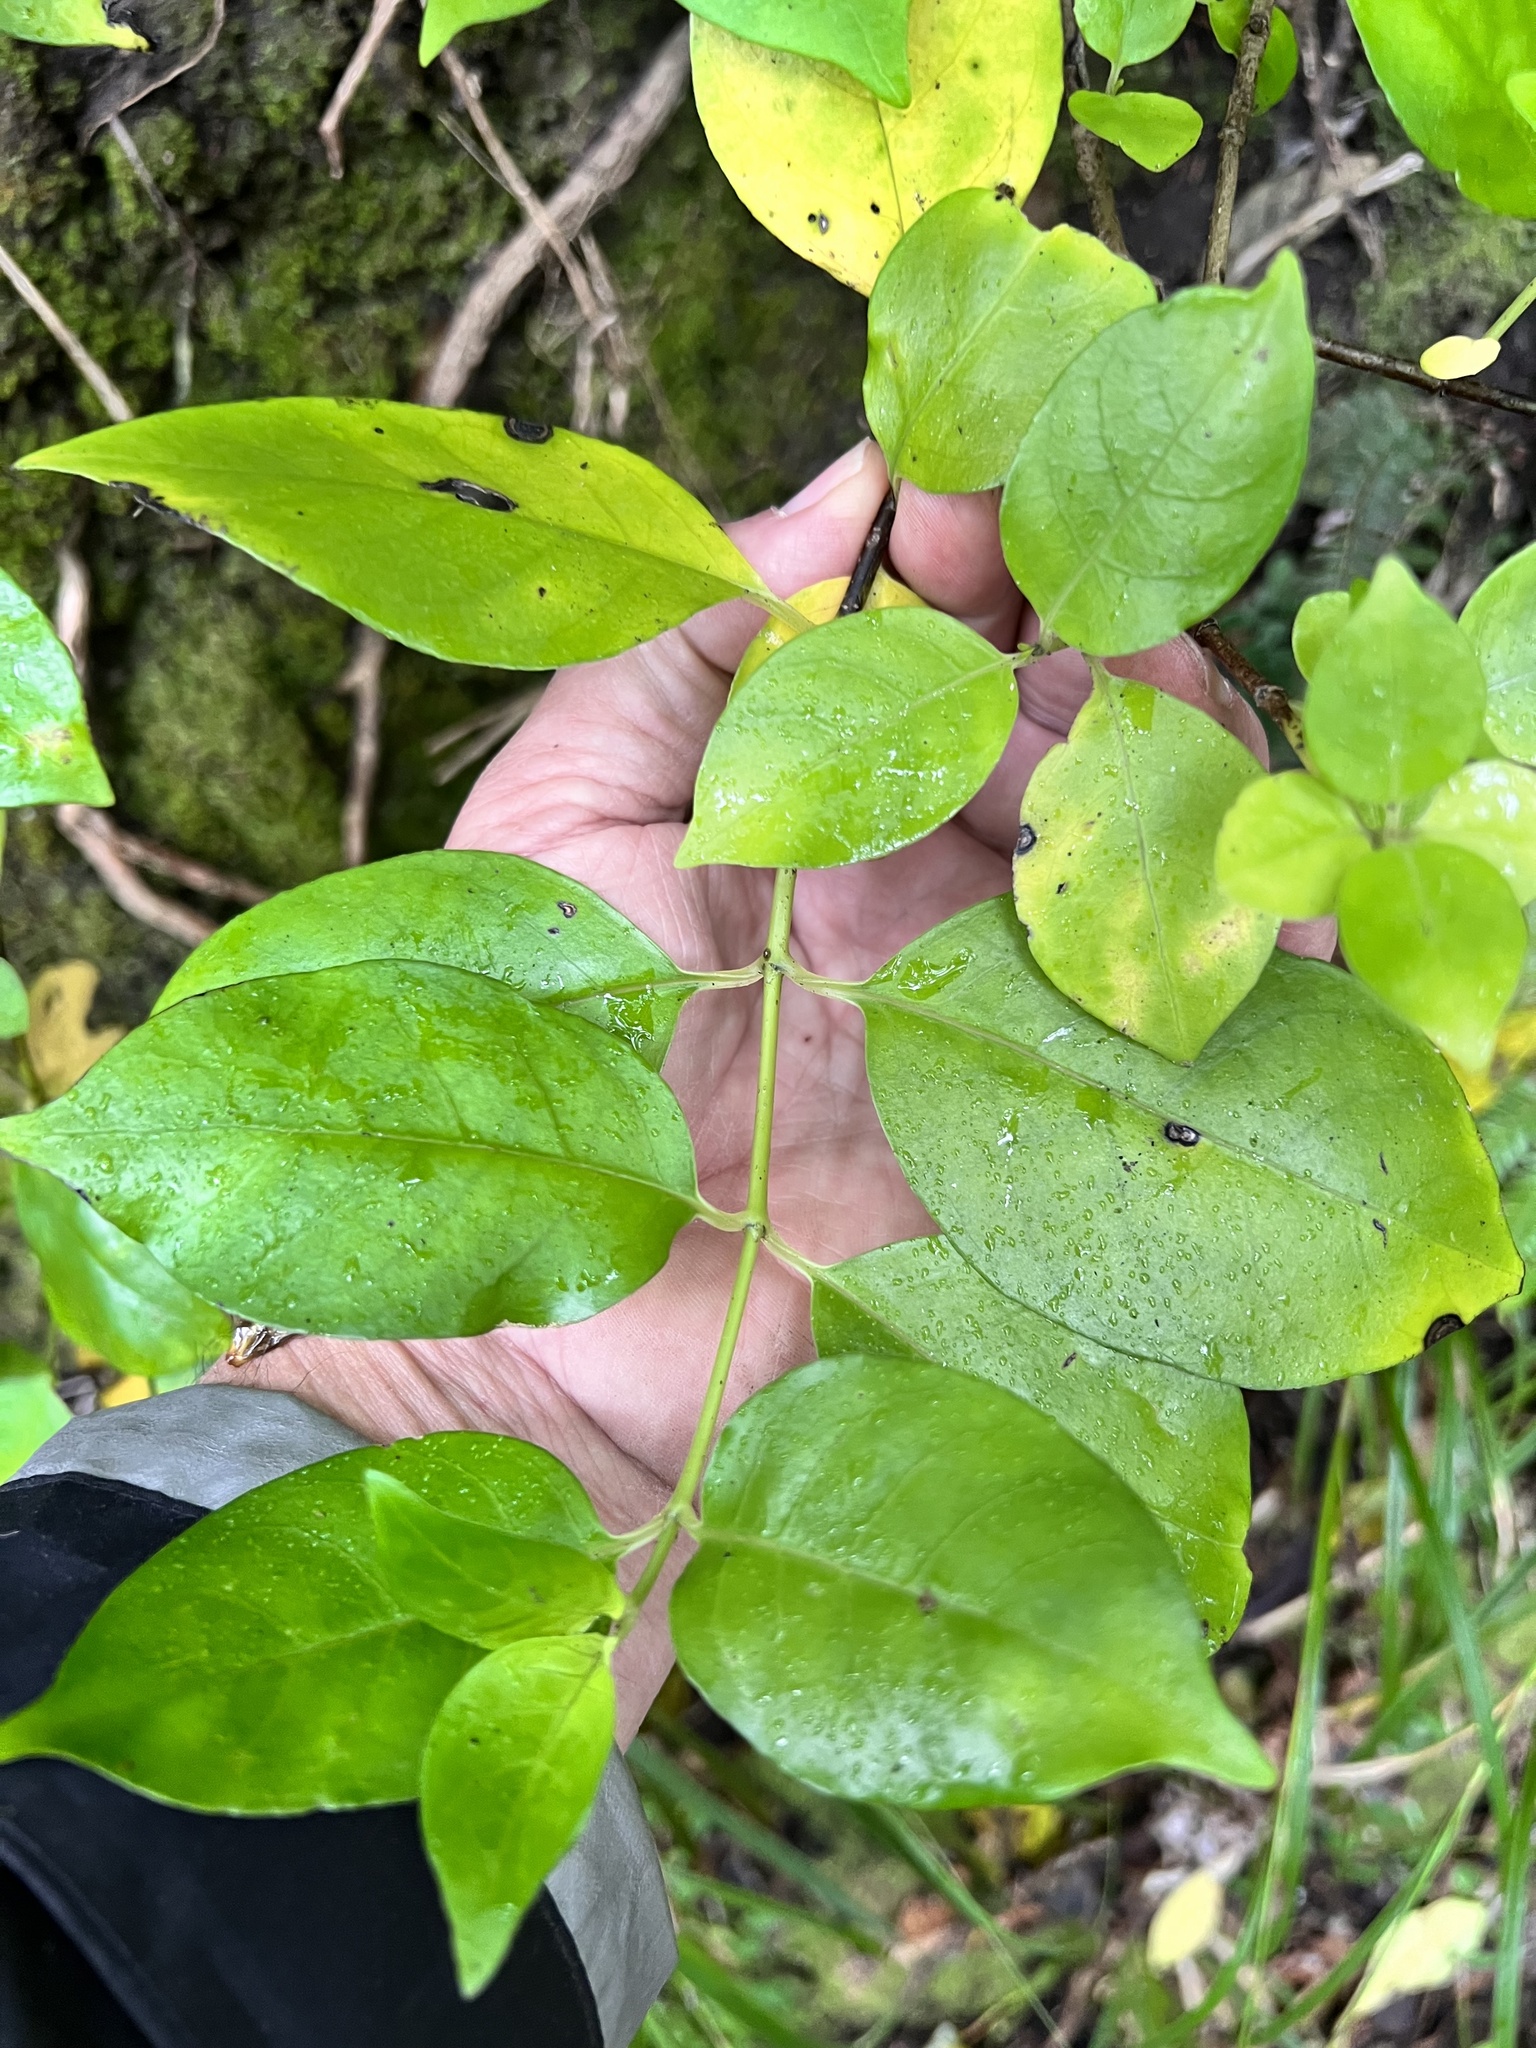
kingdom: Plantae
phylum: Tracheophyta
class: Magnoliopsida
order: Gentianales
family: Loganiaceae
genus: Geniostoma
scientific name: Geniostoma ligustrifolium
